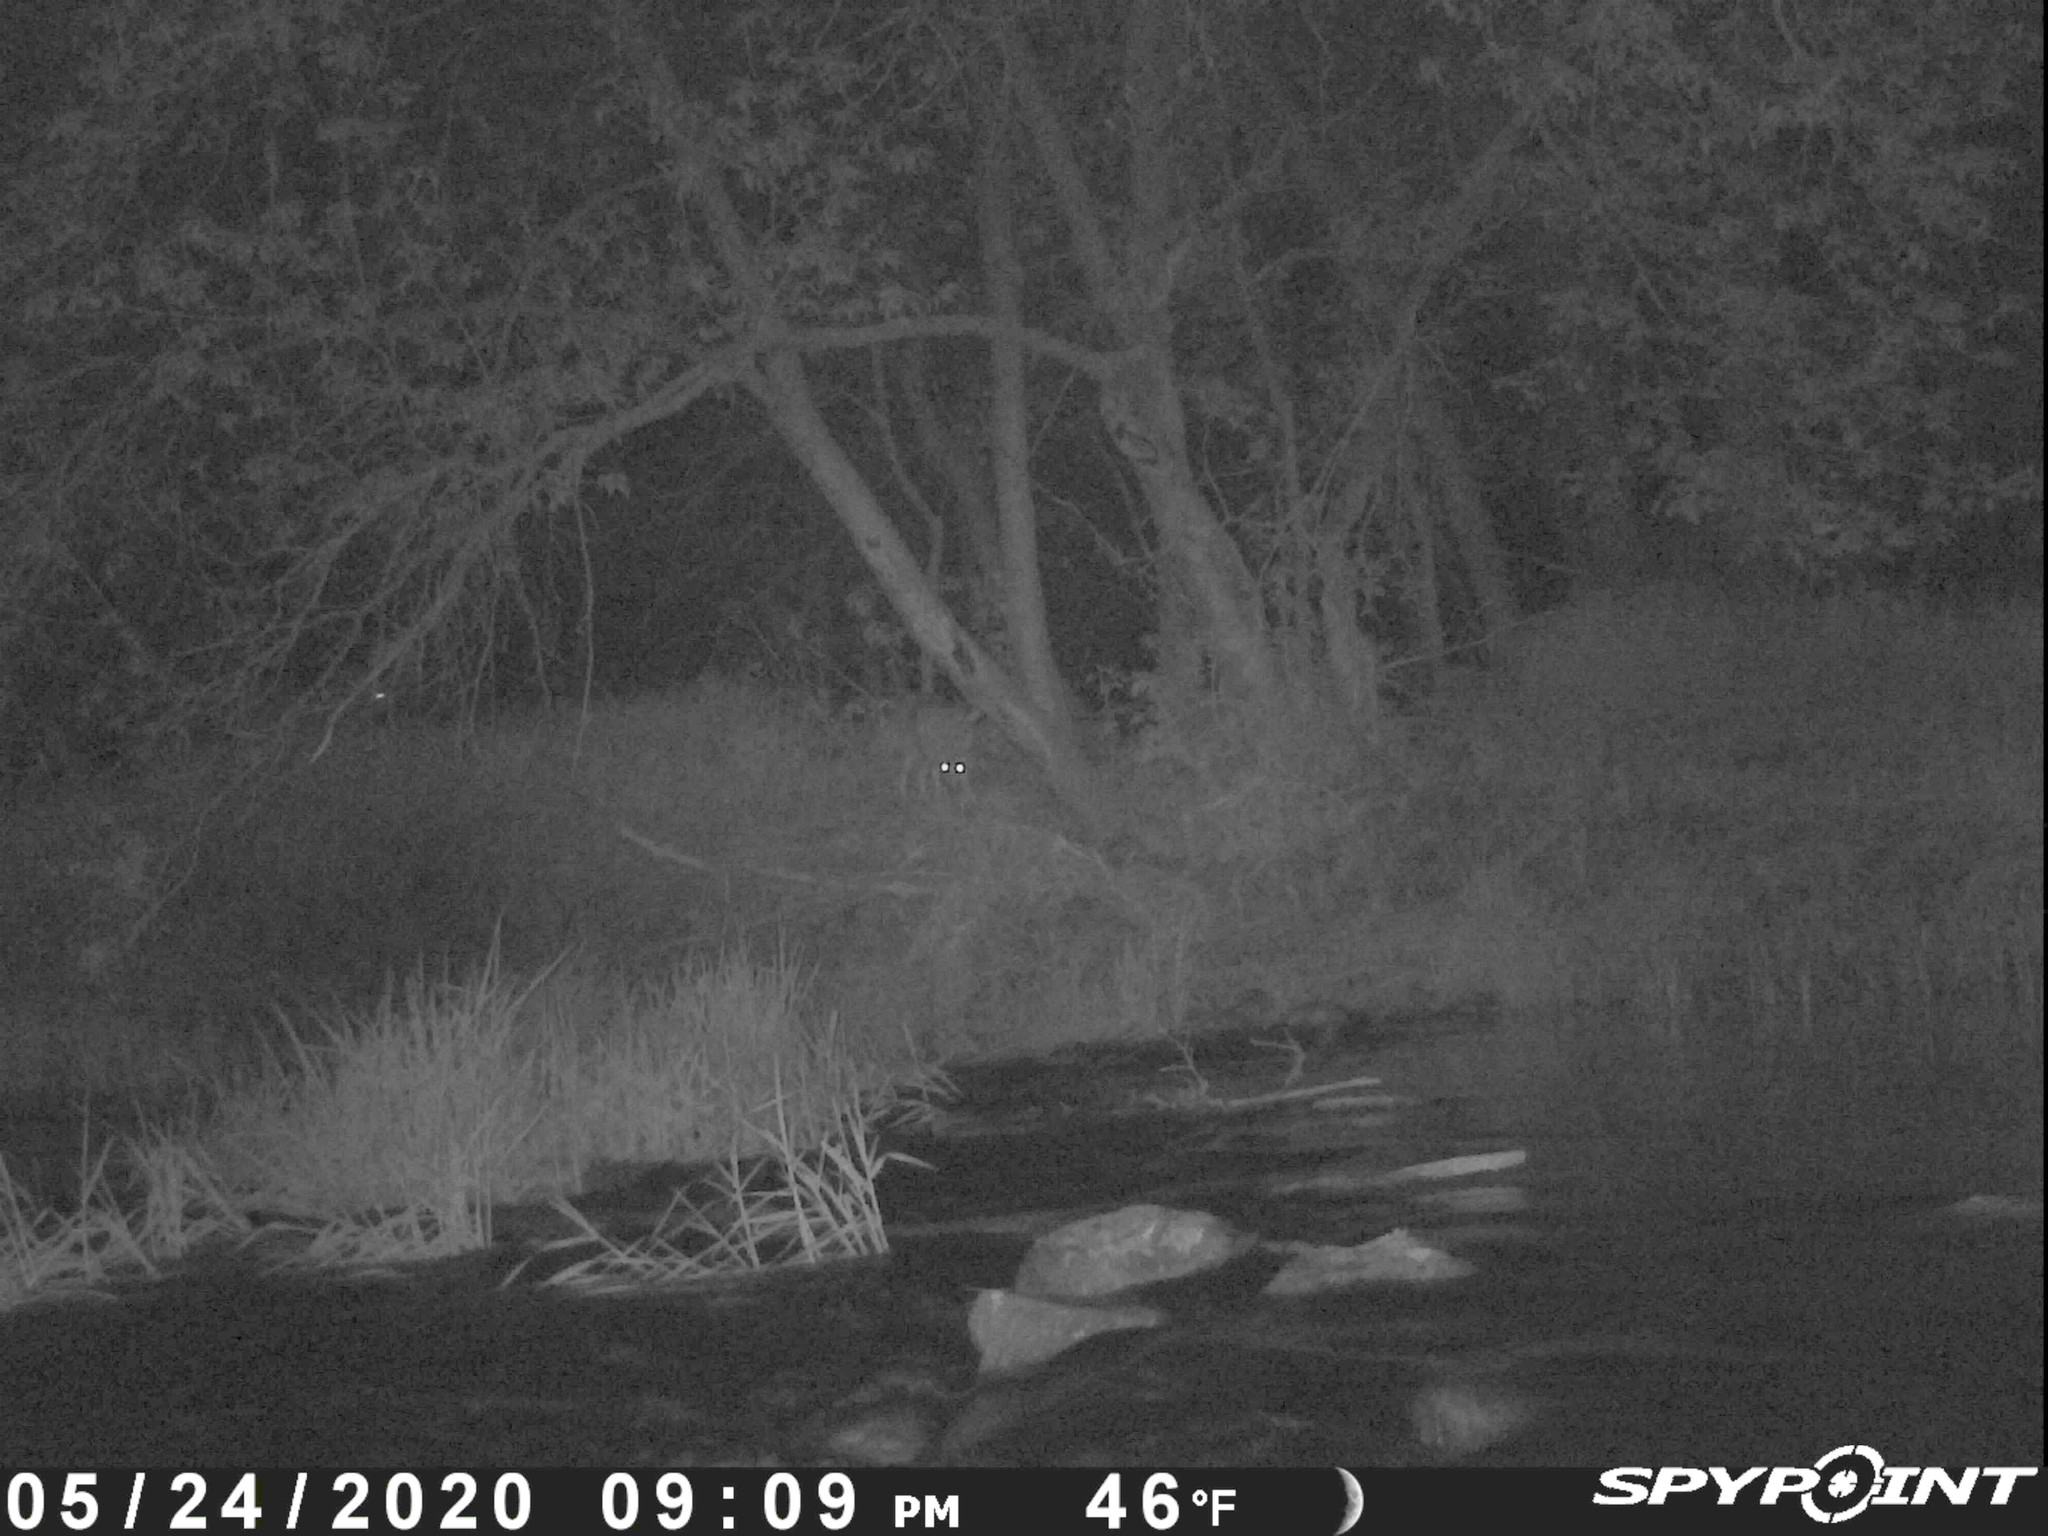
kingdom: Animalia
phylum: Chordata
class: Mammalia
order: Carnivora
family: Canidae
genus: Canis
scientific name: Canis latrans
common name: Coyote
